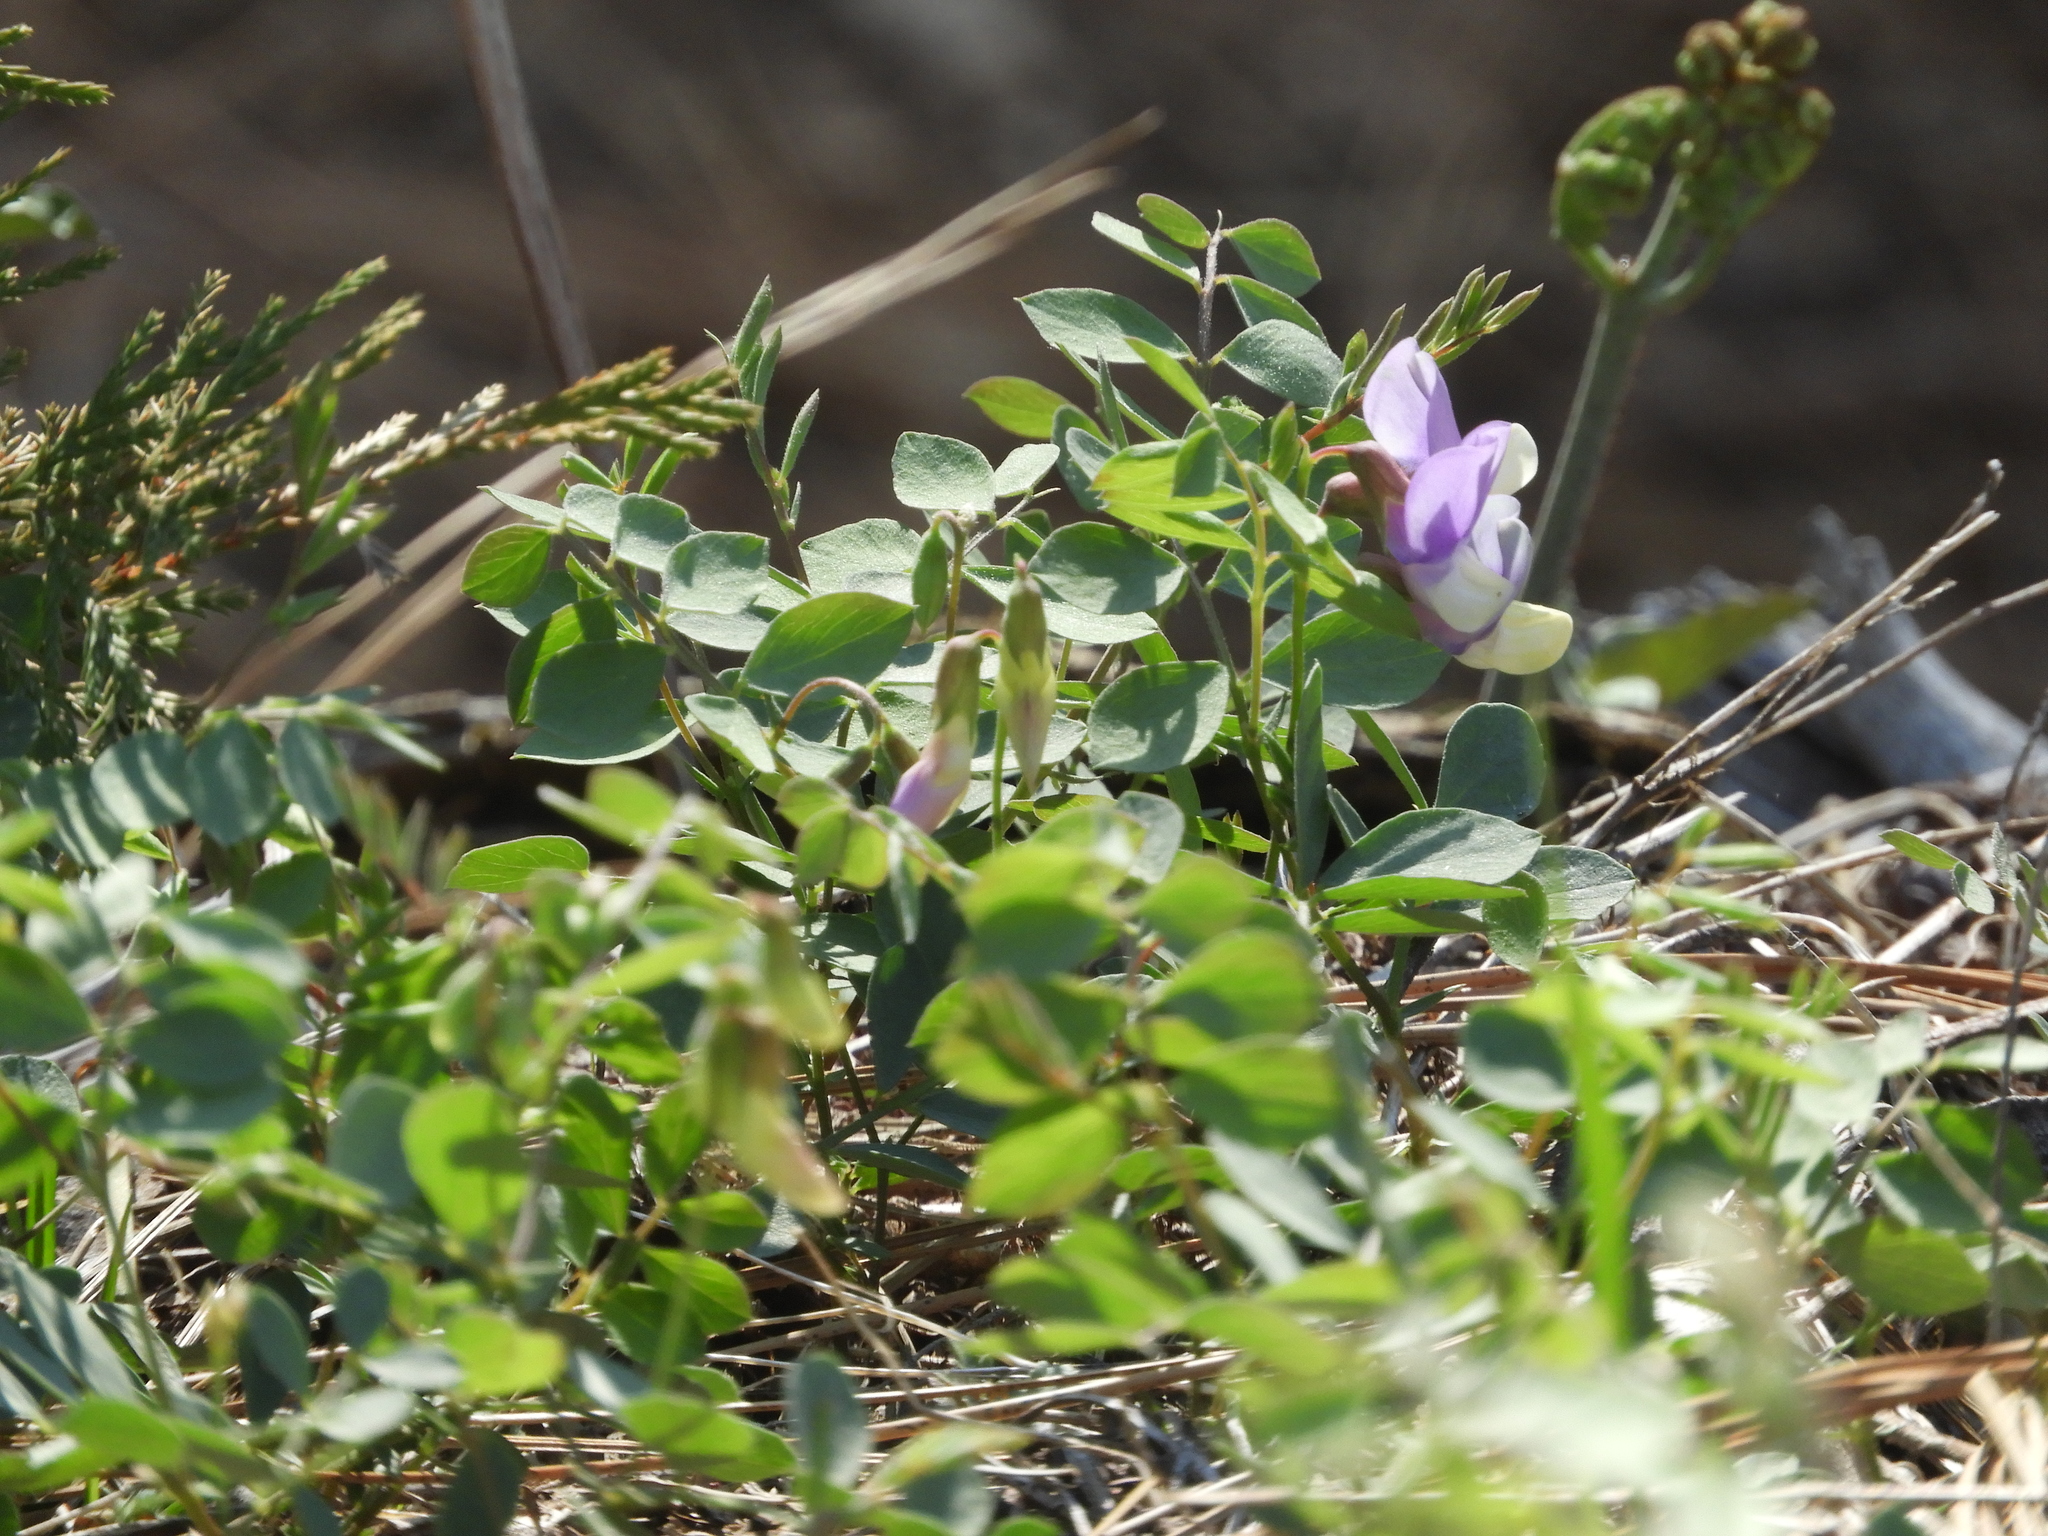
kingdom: Plantae
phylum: Tracheophyta
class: Magnoliopsida
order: Fabales
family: Fabaceae
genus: Lathyrus
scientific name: Lathyrus nevadensis
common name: Sierra nevada peavine
